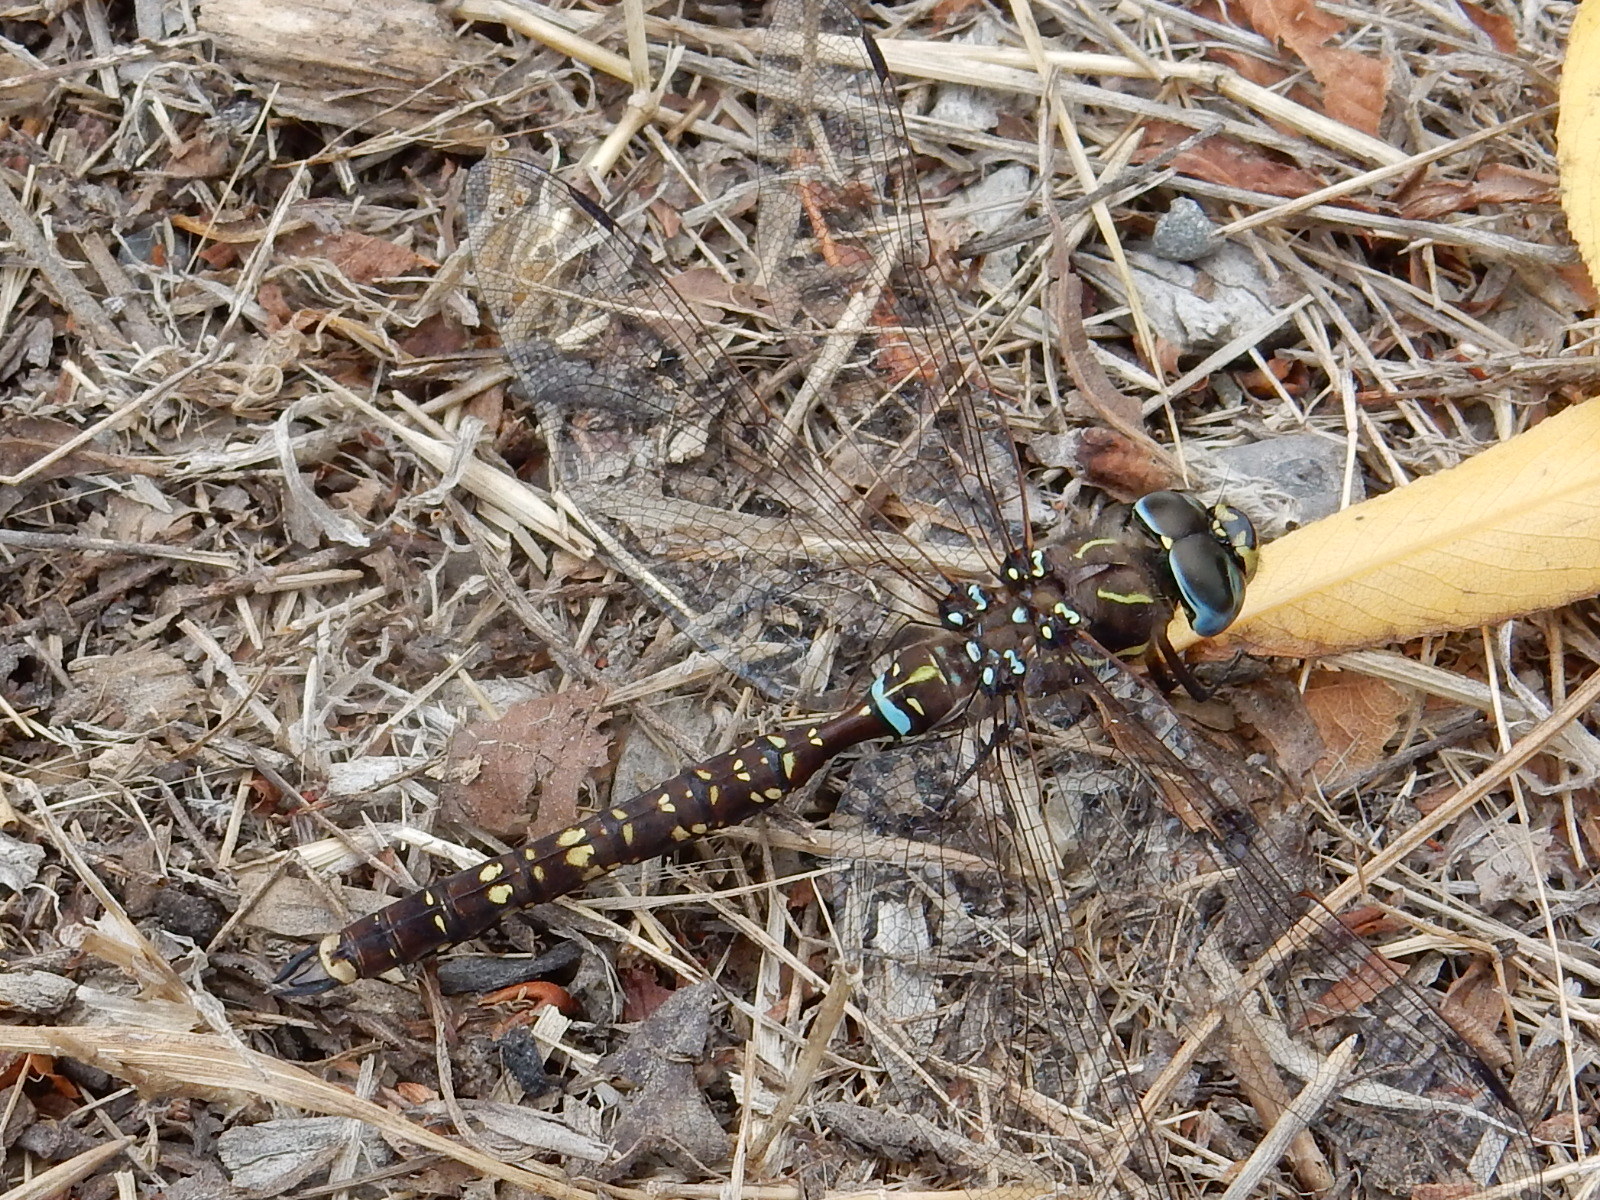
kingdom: Animalia
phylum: Arthropoda
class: Insecta
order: Odonata
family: Aeshnidae
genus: Aeshna
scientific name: Aeshna brevistyla
